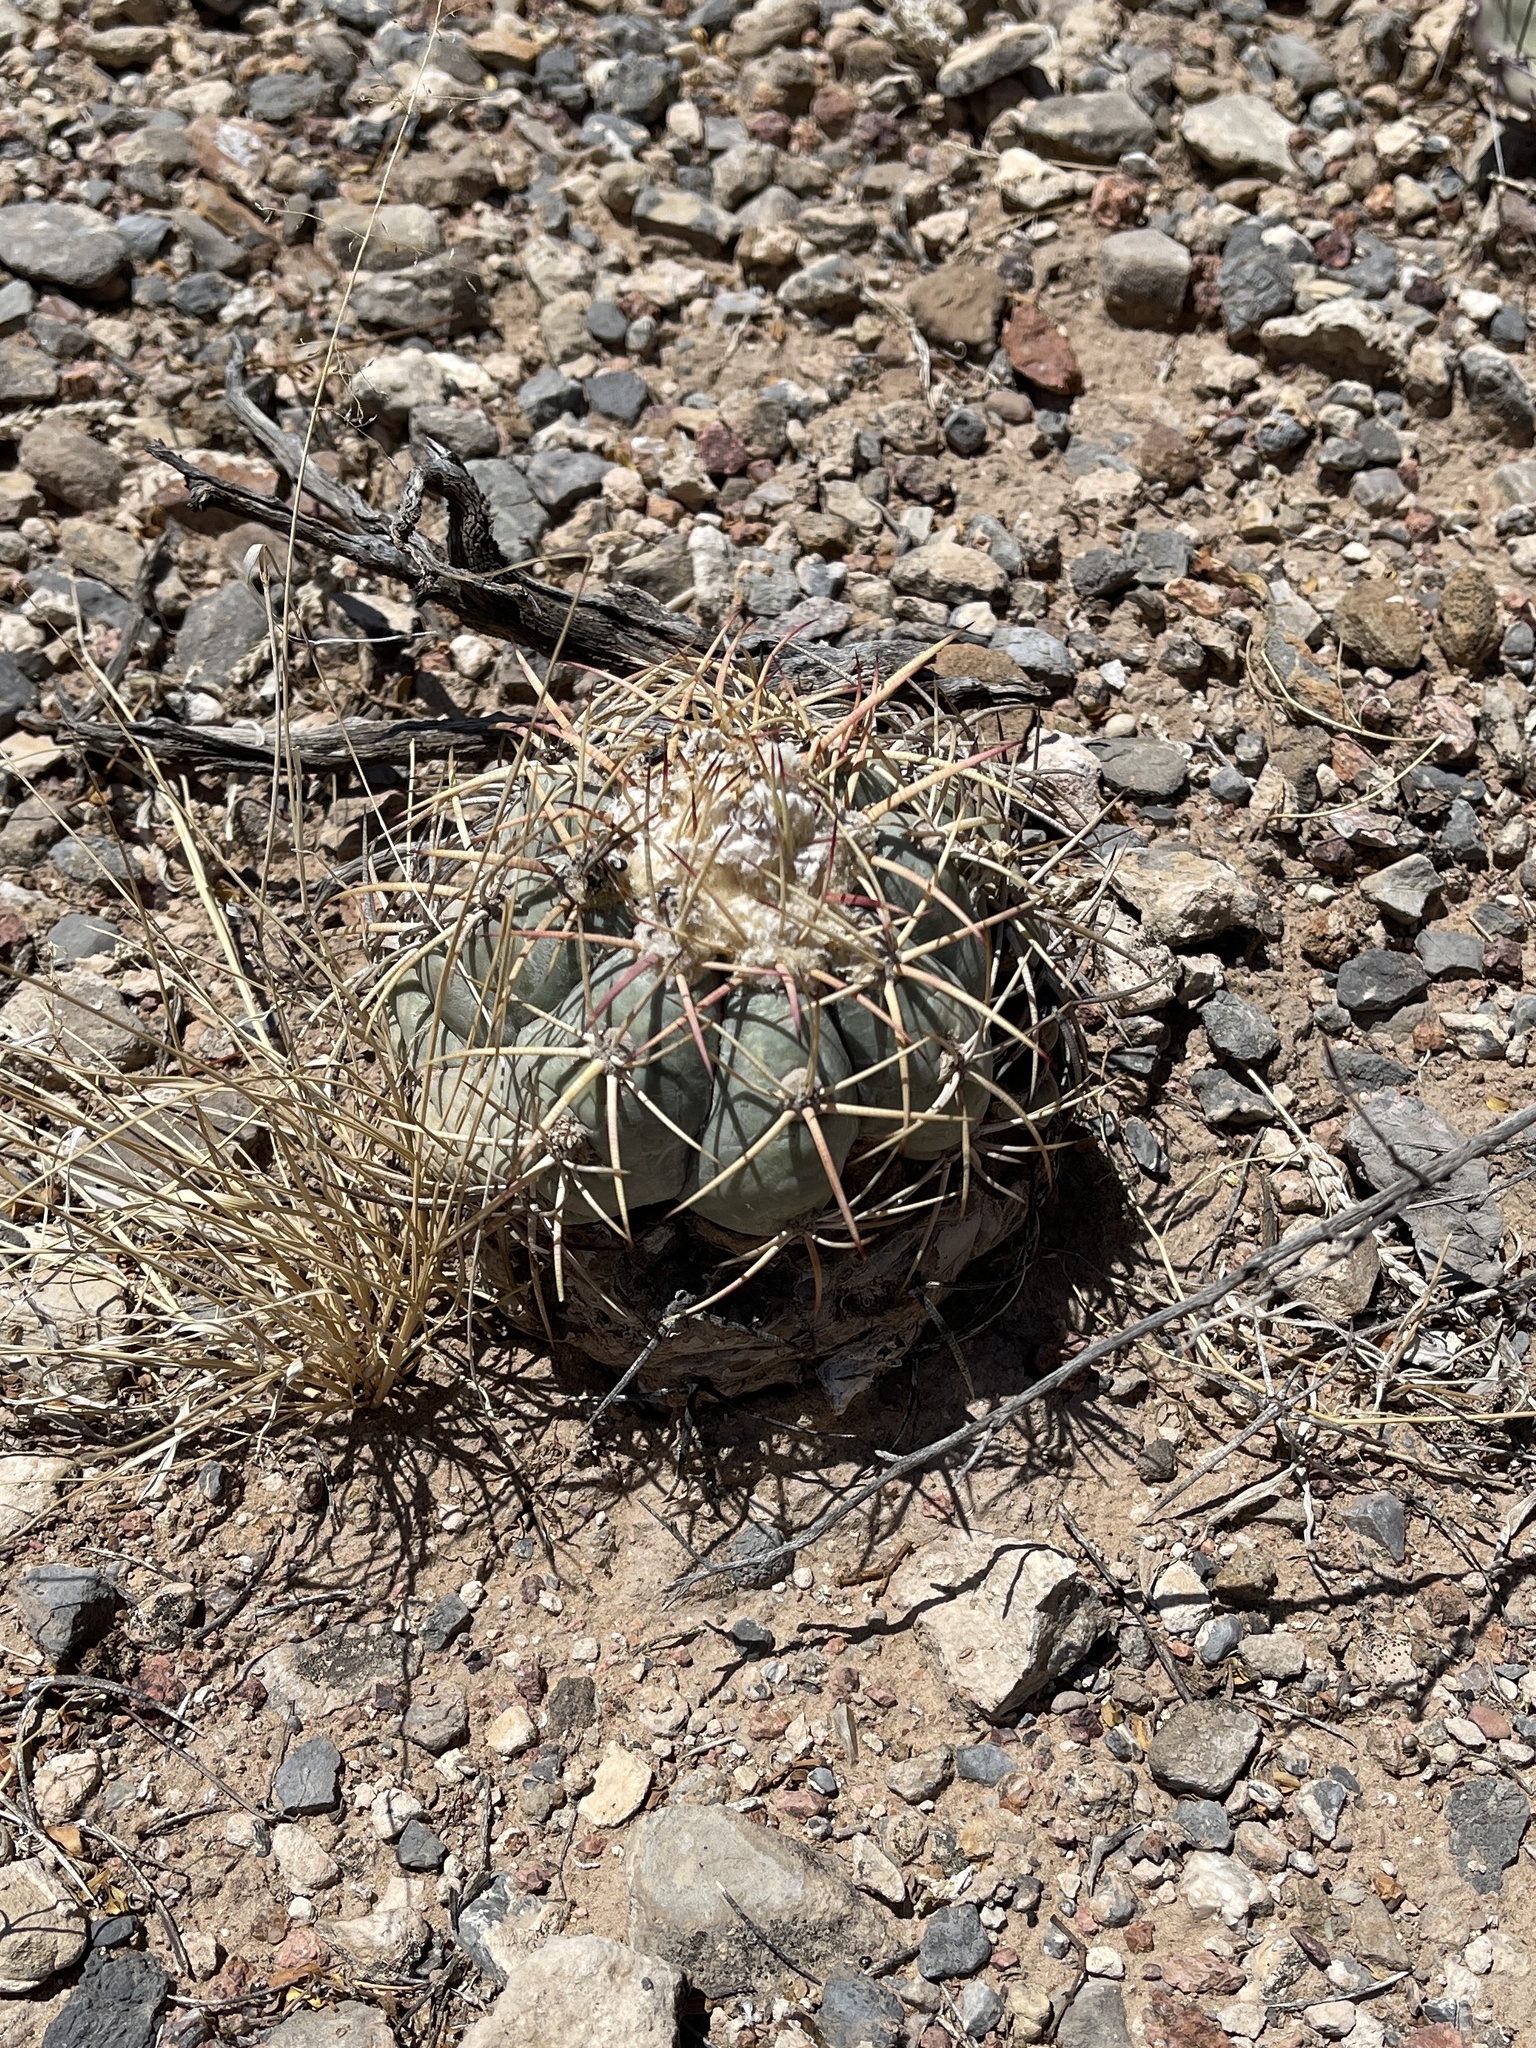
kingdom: Plantae
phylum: Tracheophyta
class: Magnoliopsida
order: Caryophyllales
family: Cactaceae
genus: Echinocactus
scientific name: Echinocactus horizonthalonius
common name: Devilshead
